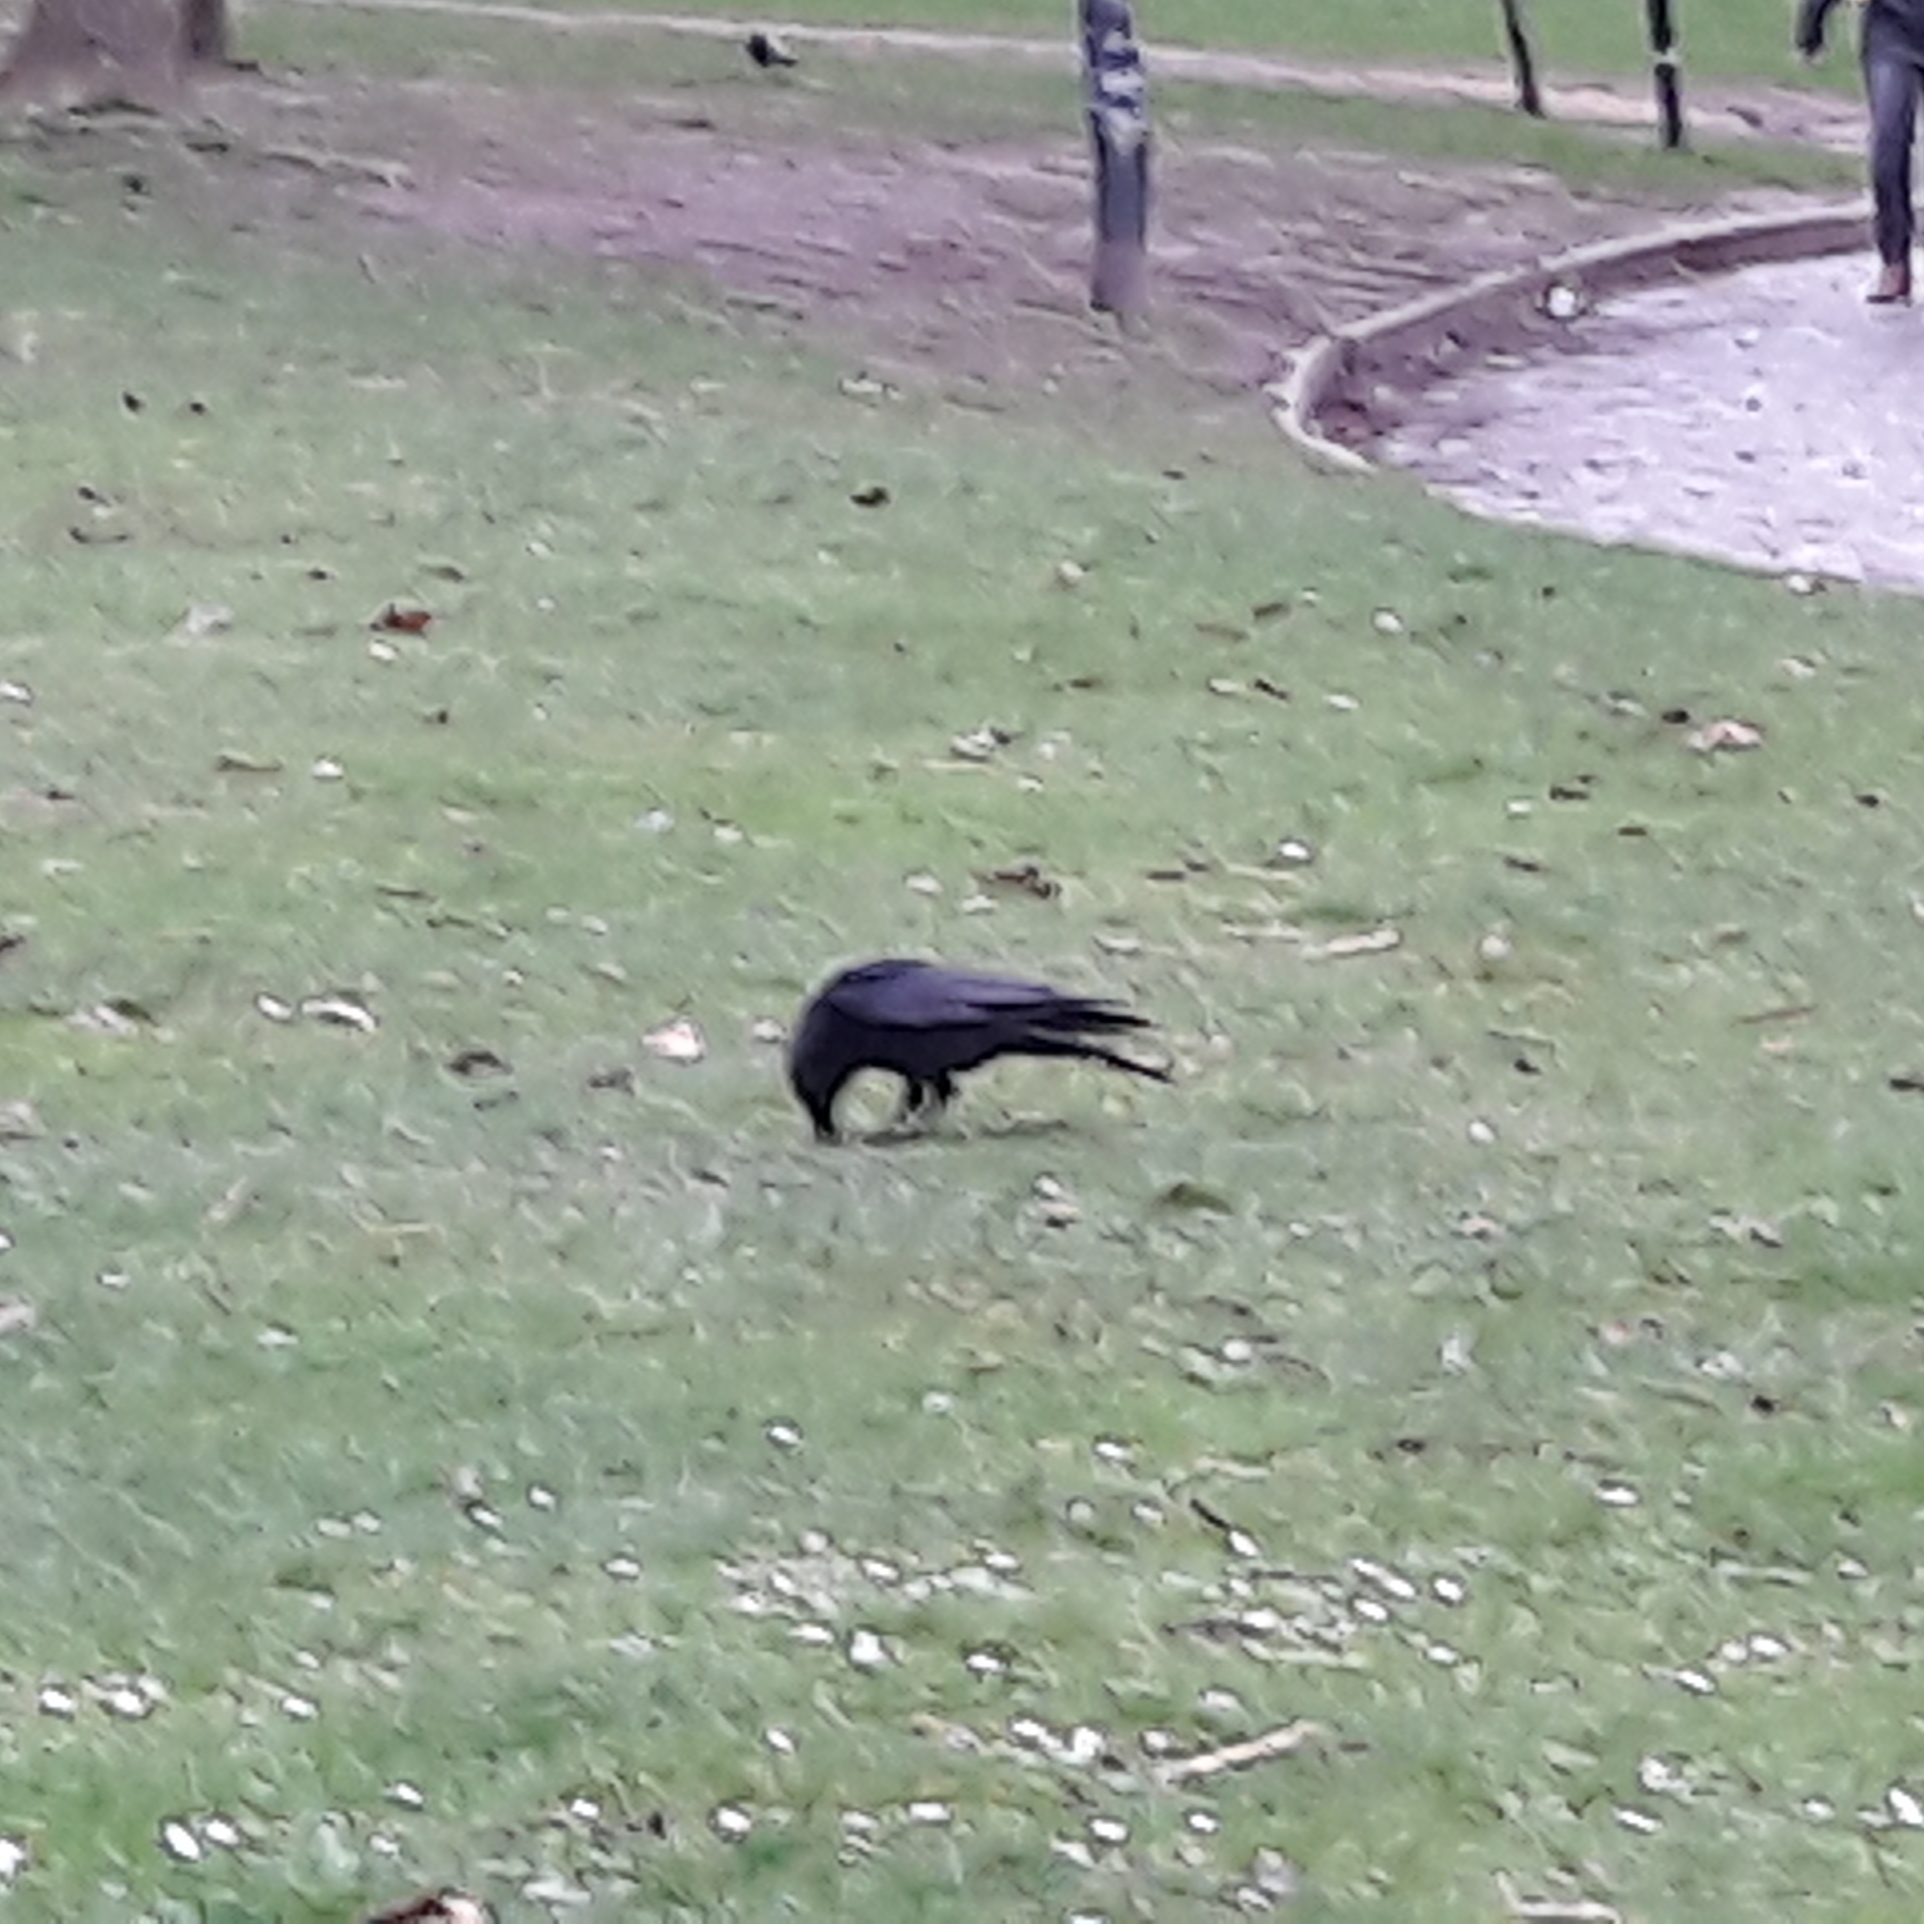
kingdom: Animalia
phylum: Chordata
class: Aves
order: Passeriformes
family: Corvidae
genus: Corvus
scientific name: Corvus corone
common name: Carrion crow
